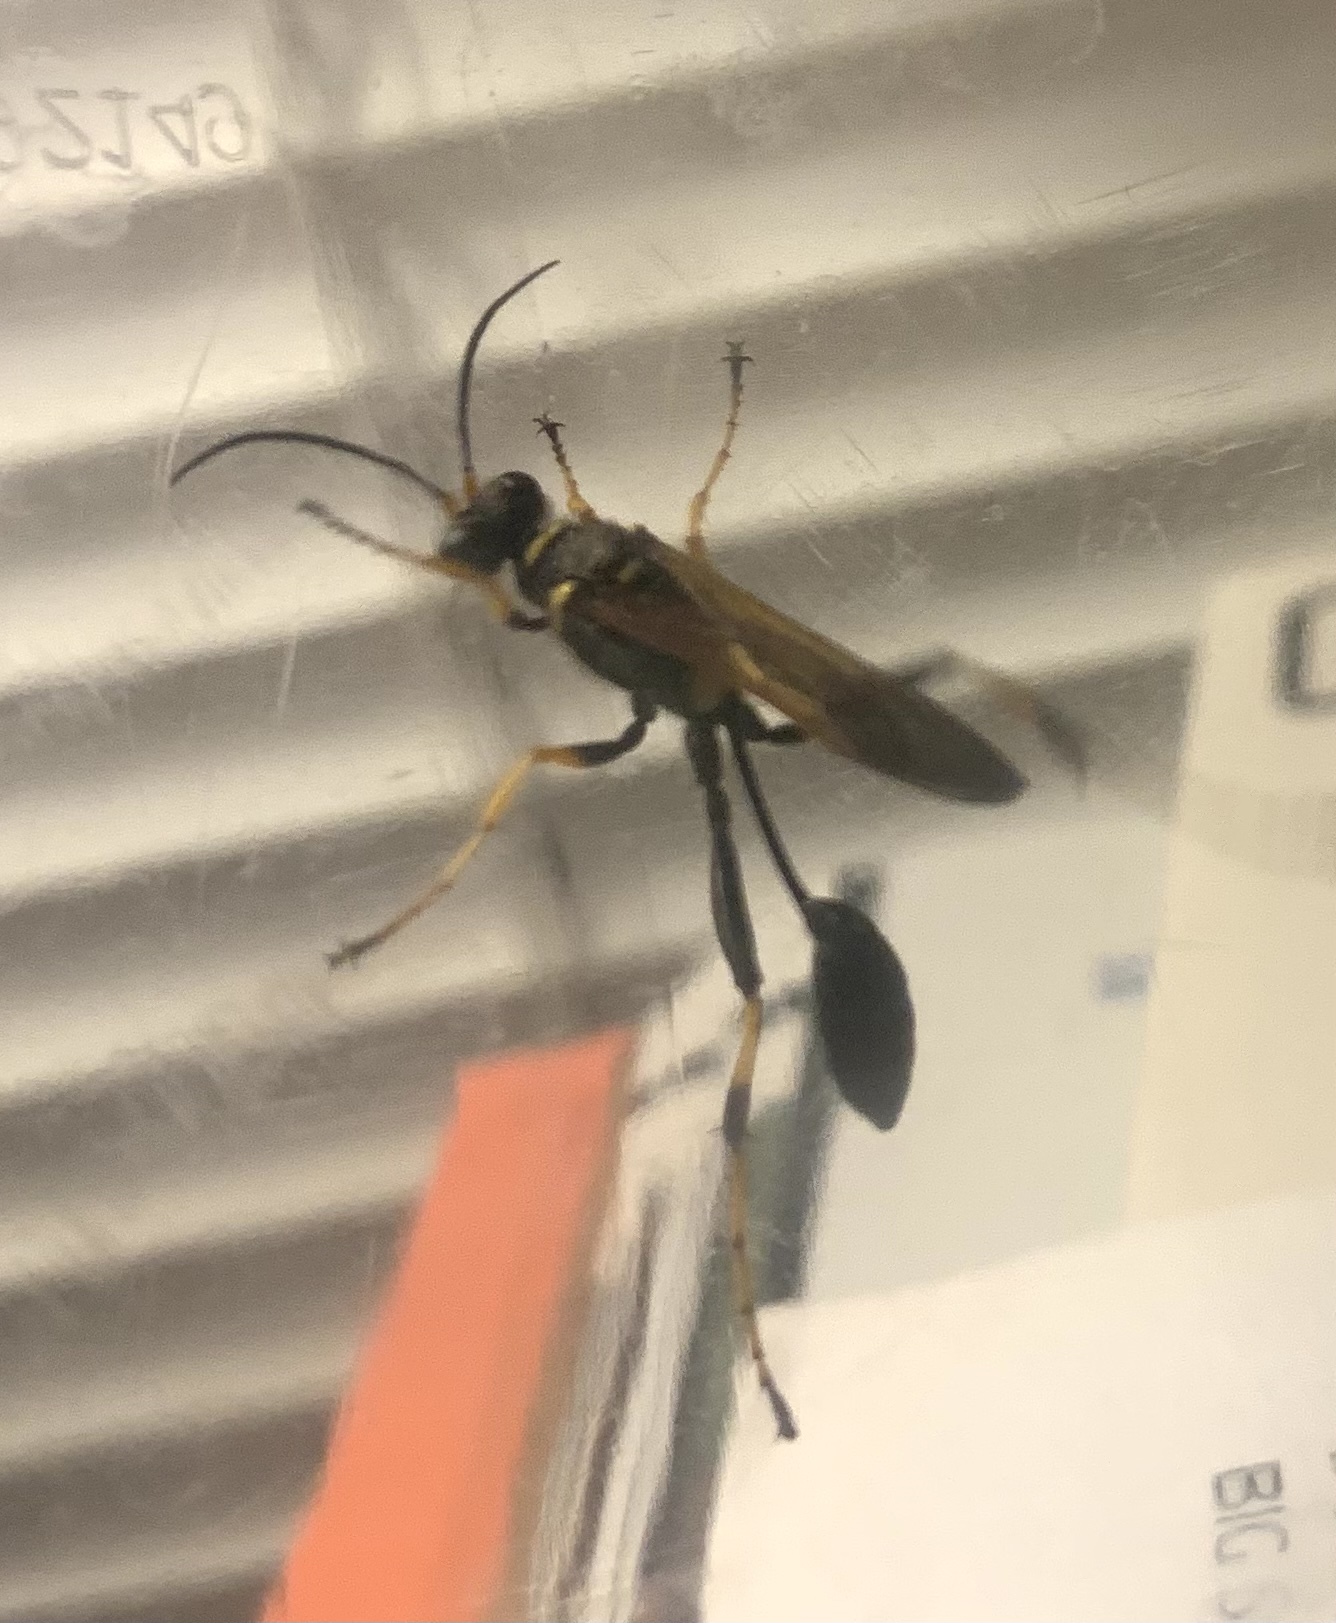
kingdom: Animalia
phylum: Arthropoda
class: Insecta
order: Hymenoptera
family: Sphecidae
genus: Sceliphron
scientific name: Sceliphron caementarium
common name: Mud dauber
